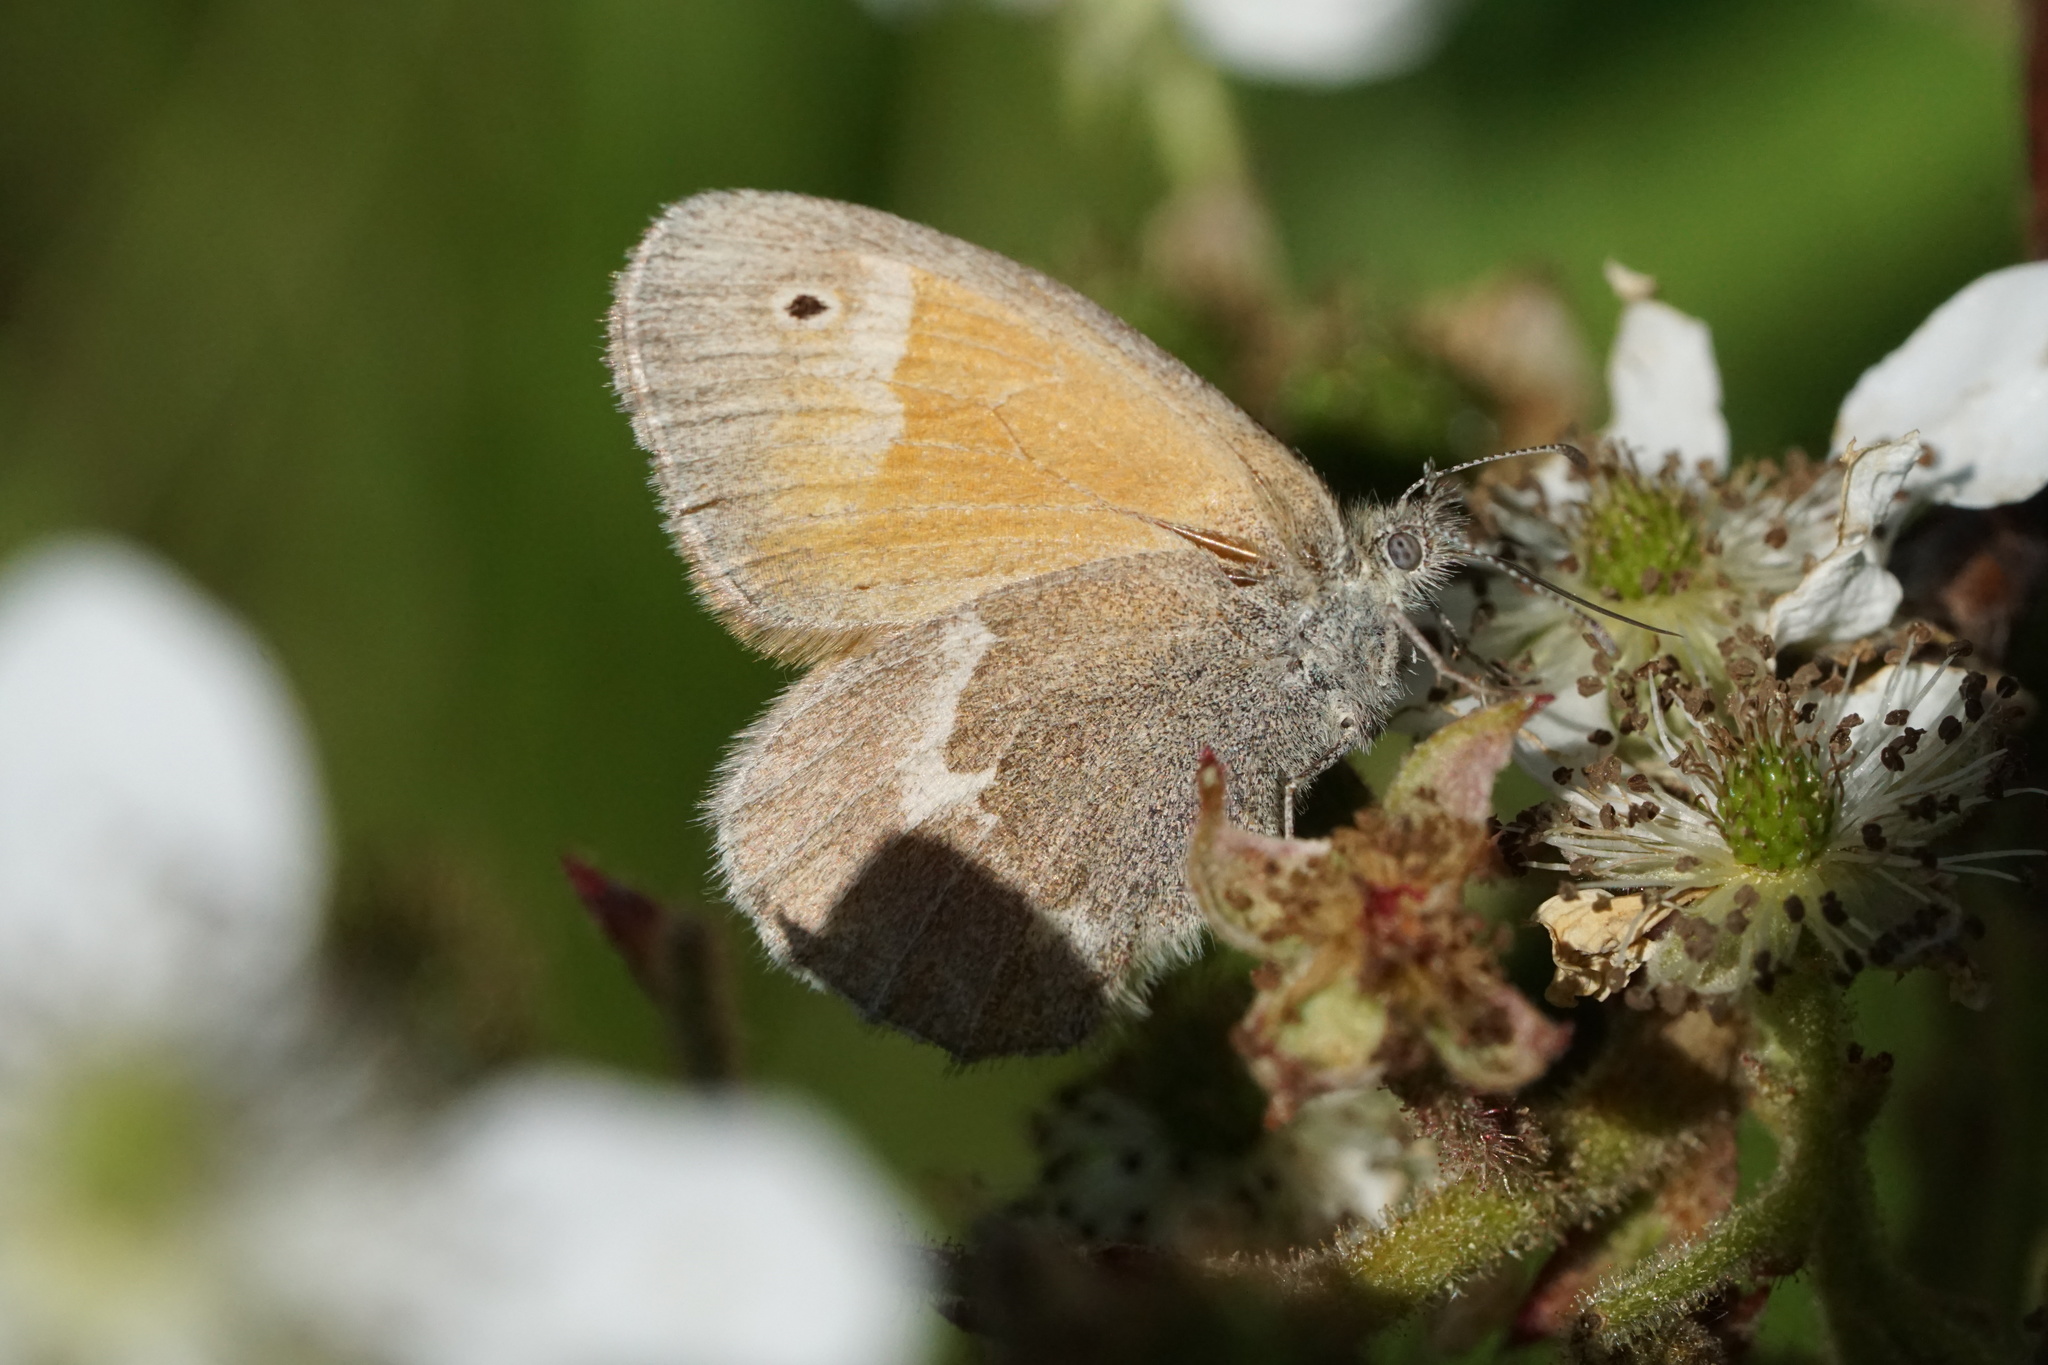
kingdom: Animalia
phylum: Arthropoda
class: Insecta
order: Lepidoptera
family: Nymphalidae
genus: Coenonympha
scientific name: Coenonympha california
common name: Common ringlet
